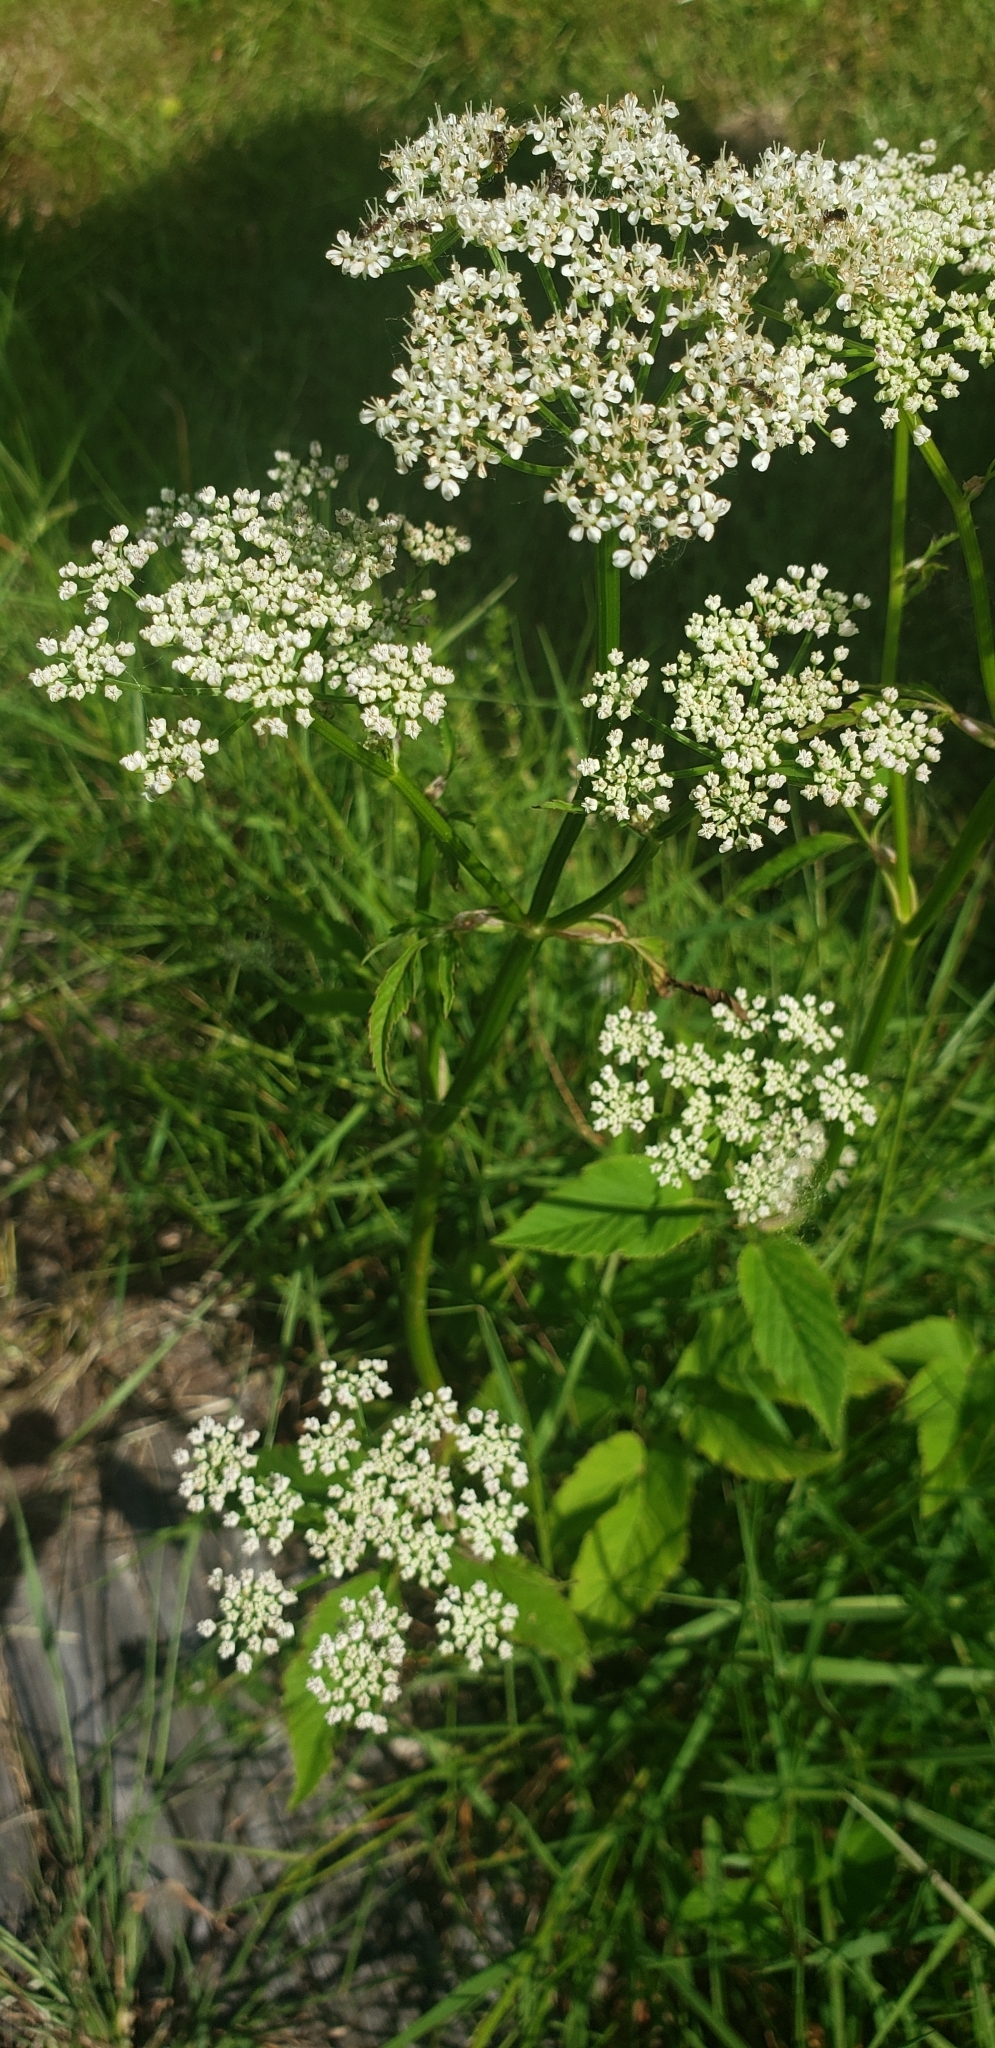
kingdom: Plantae
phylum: Tracheophyta
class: Magnoliopsida
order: Apiales
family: Apiaceae
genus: Aegopodium
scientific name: Aegopodium podagraria
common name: Ground-elder
